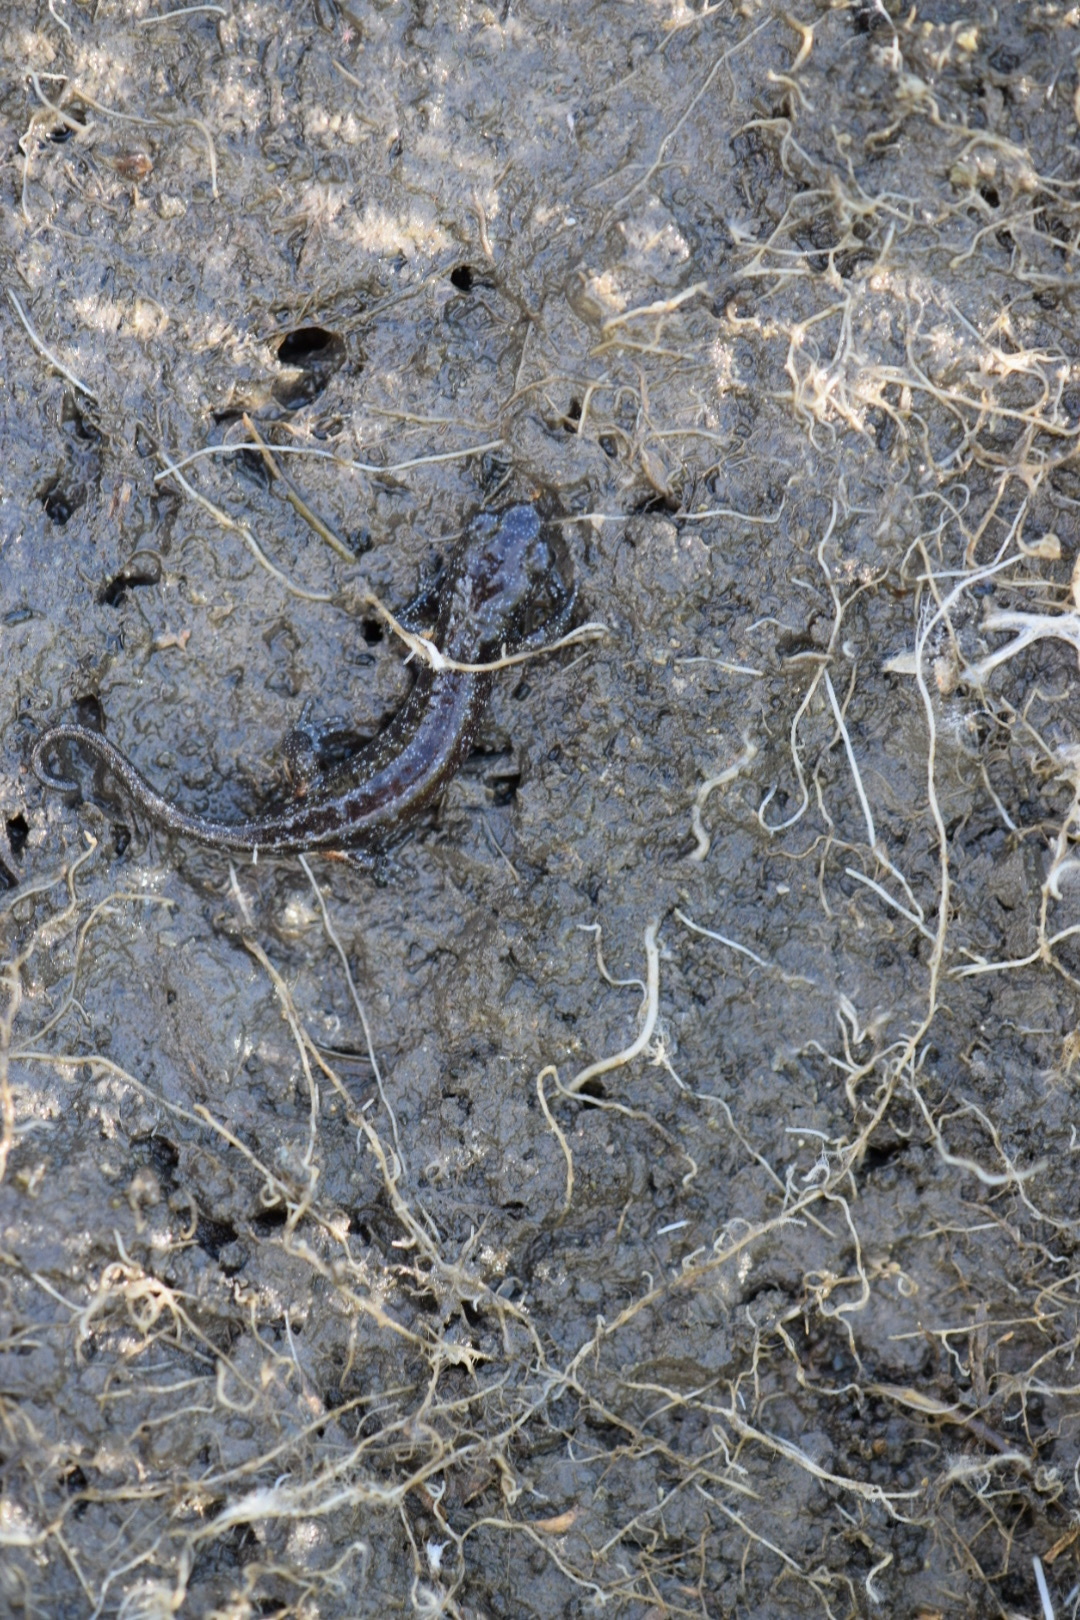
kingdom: Animalia
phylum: Chordata
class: Amphibia
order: Caudata
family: Plethodontidae
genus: Aneides
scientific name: Aneides lugubris
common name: Arboreal salamander
